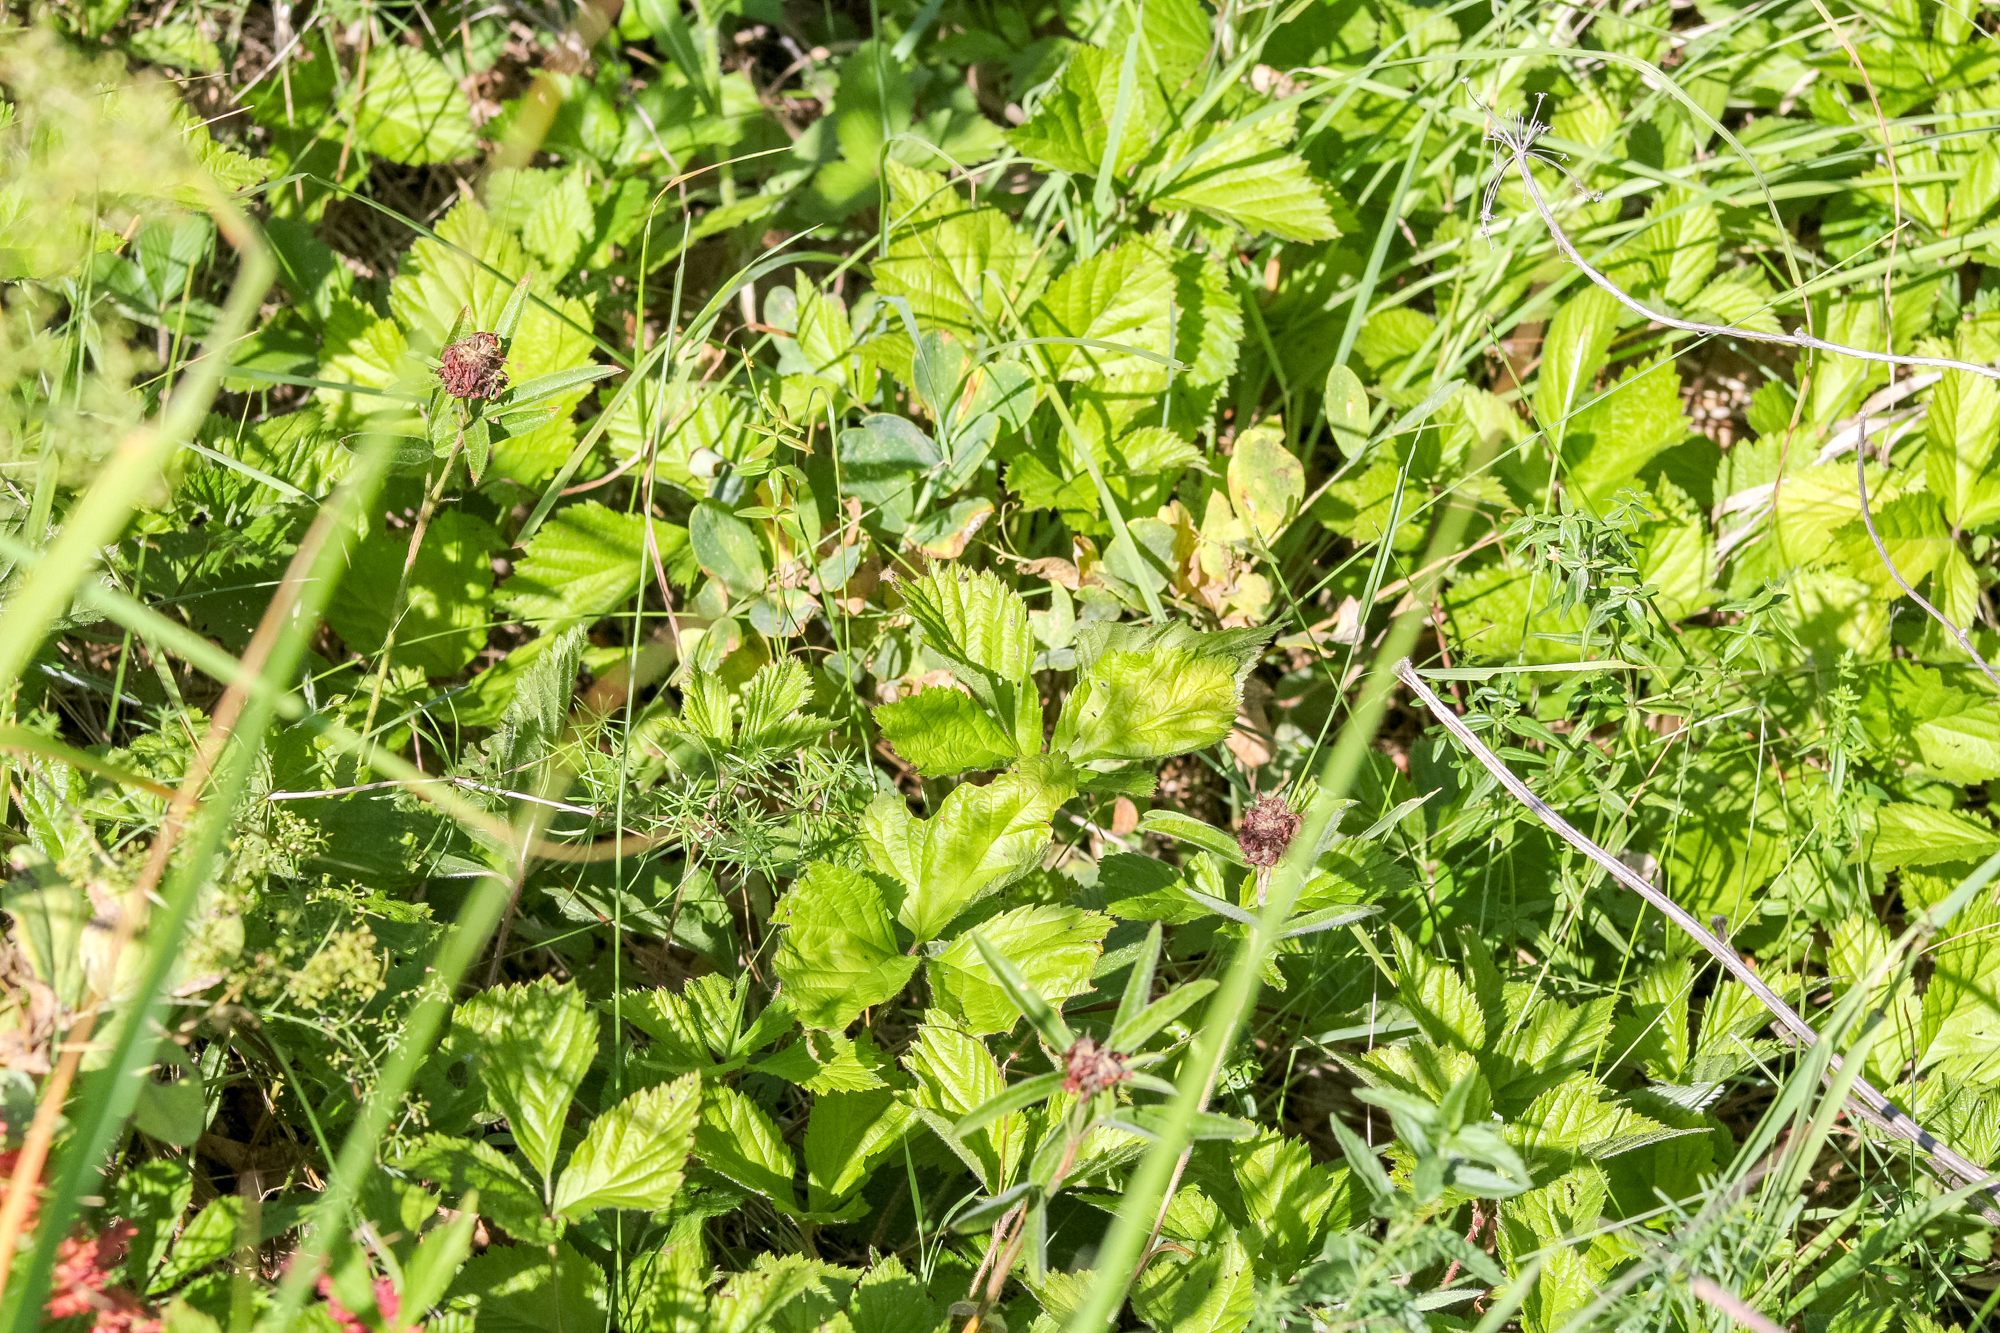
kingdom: Plantae
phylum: Tracheophyta
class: Magnoliopsida
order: Rosales
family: Rosaceae
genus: Rubus
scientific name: Rubus saxatilis
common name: Stone bramble
